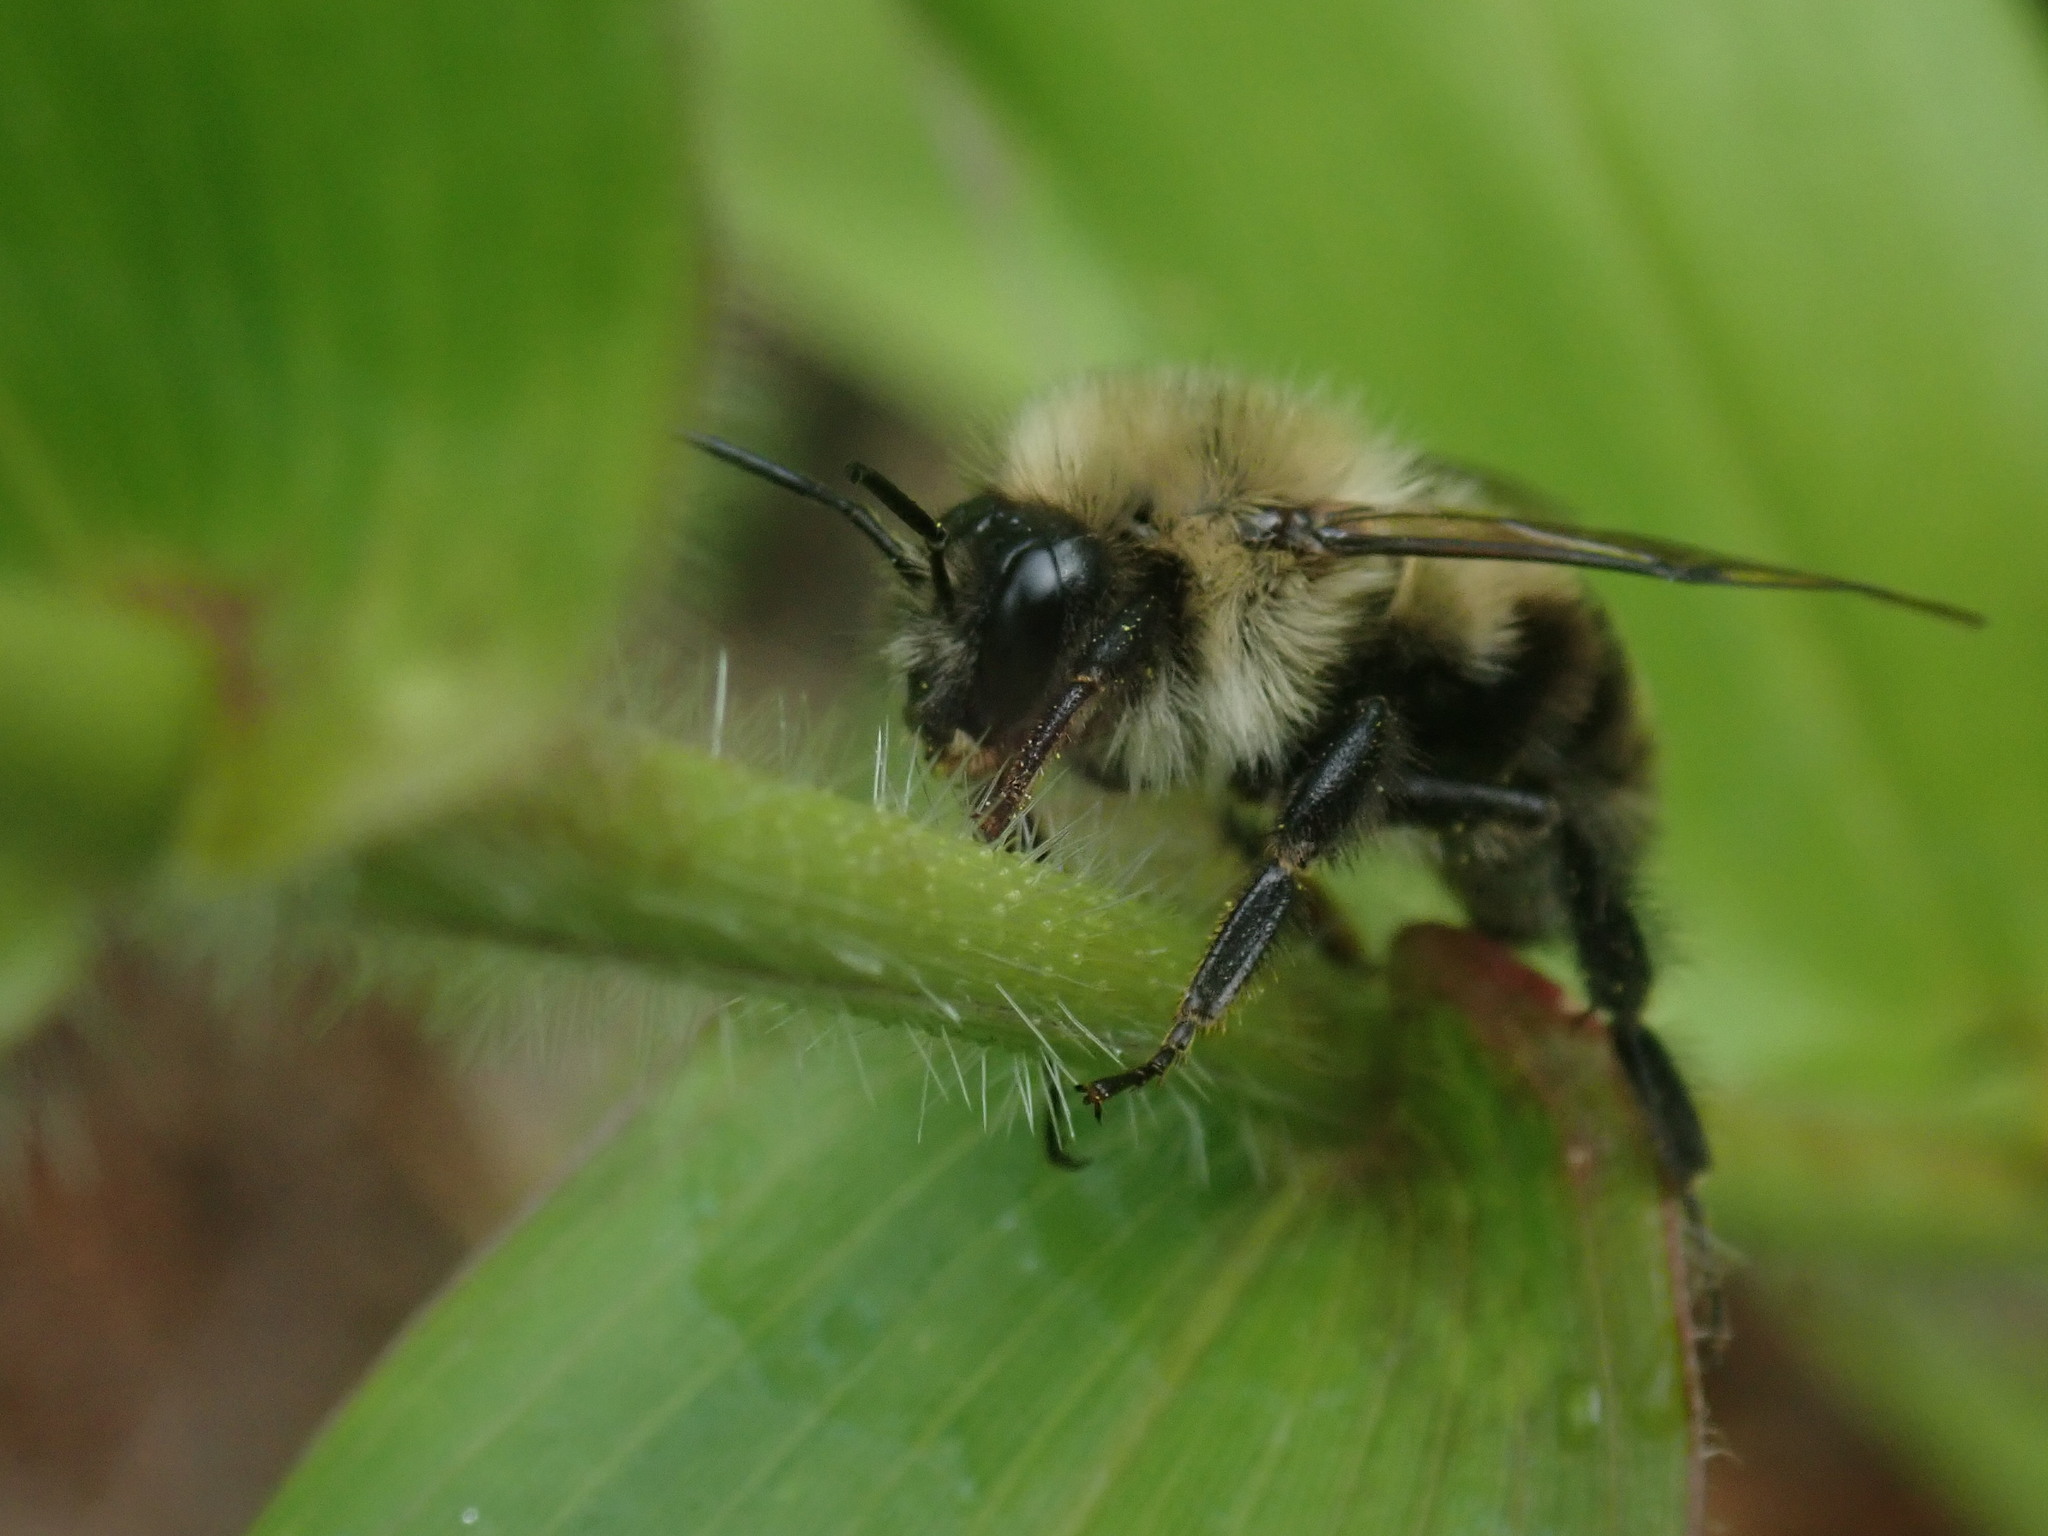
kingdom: Animalia
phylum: Arthropoda
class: Insecta
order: Hymenoptera
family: Apidae
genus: Bombus
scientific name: Bombus bimaculatus
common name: Two-spotted bumble bee
